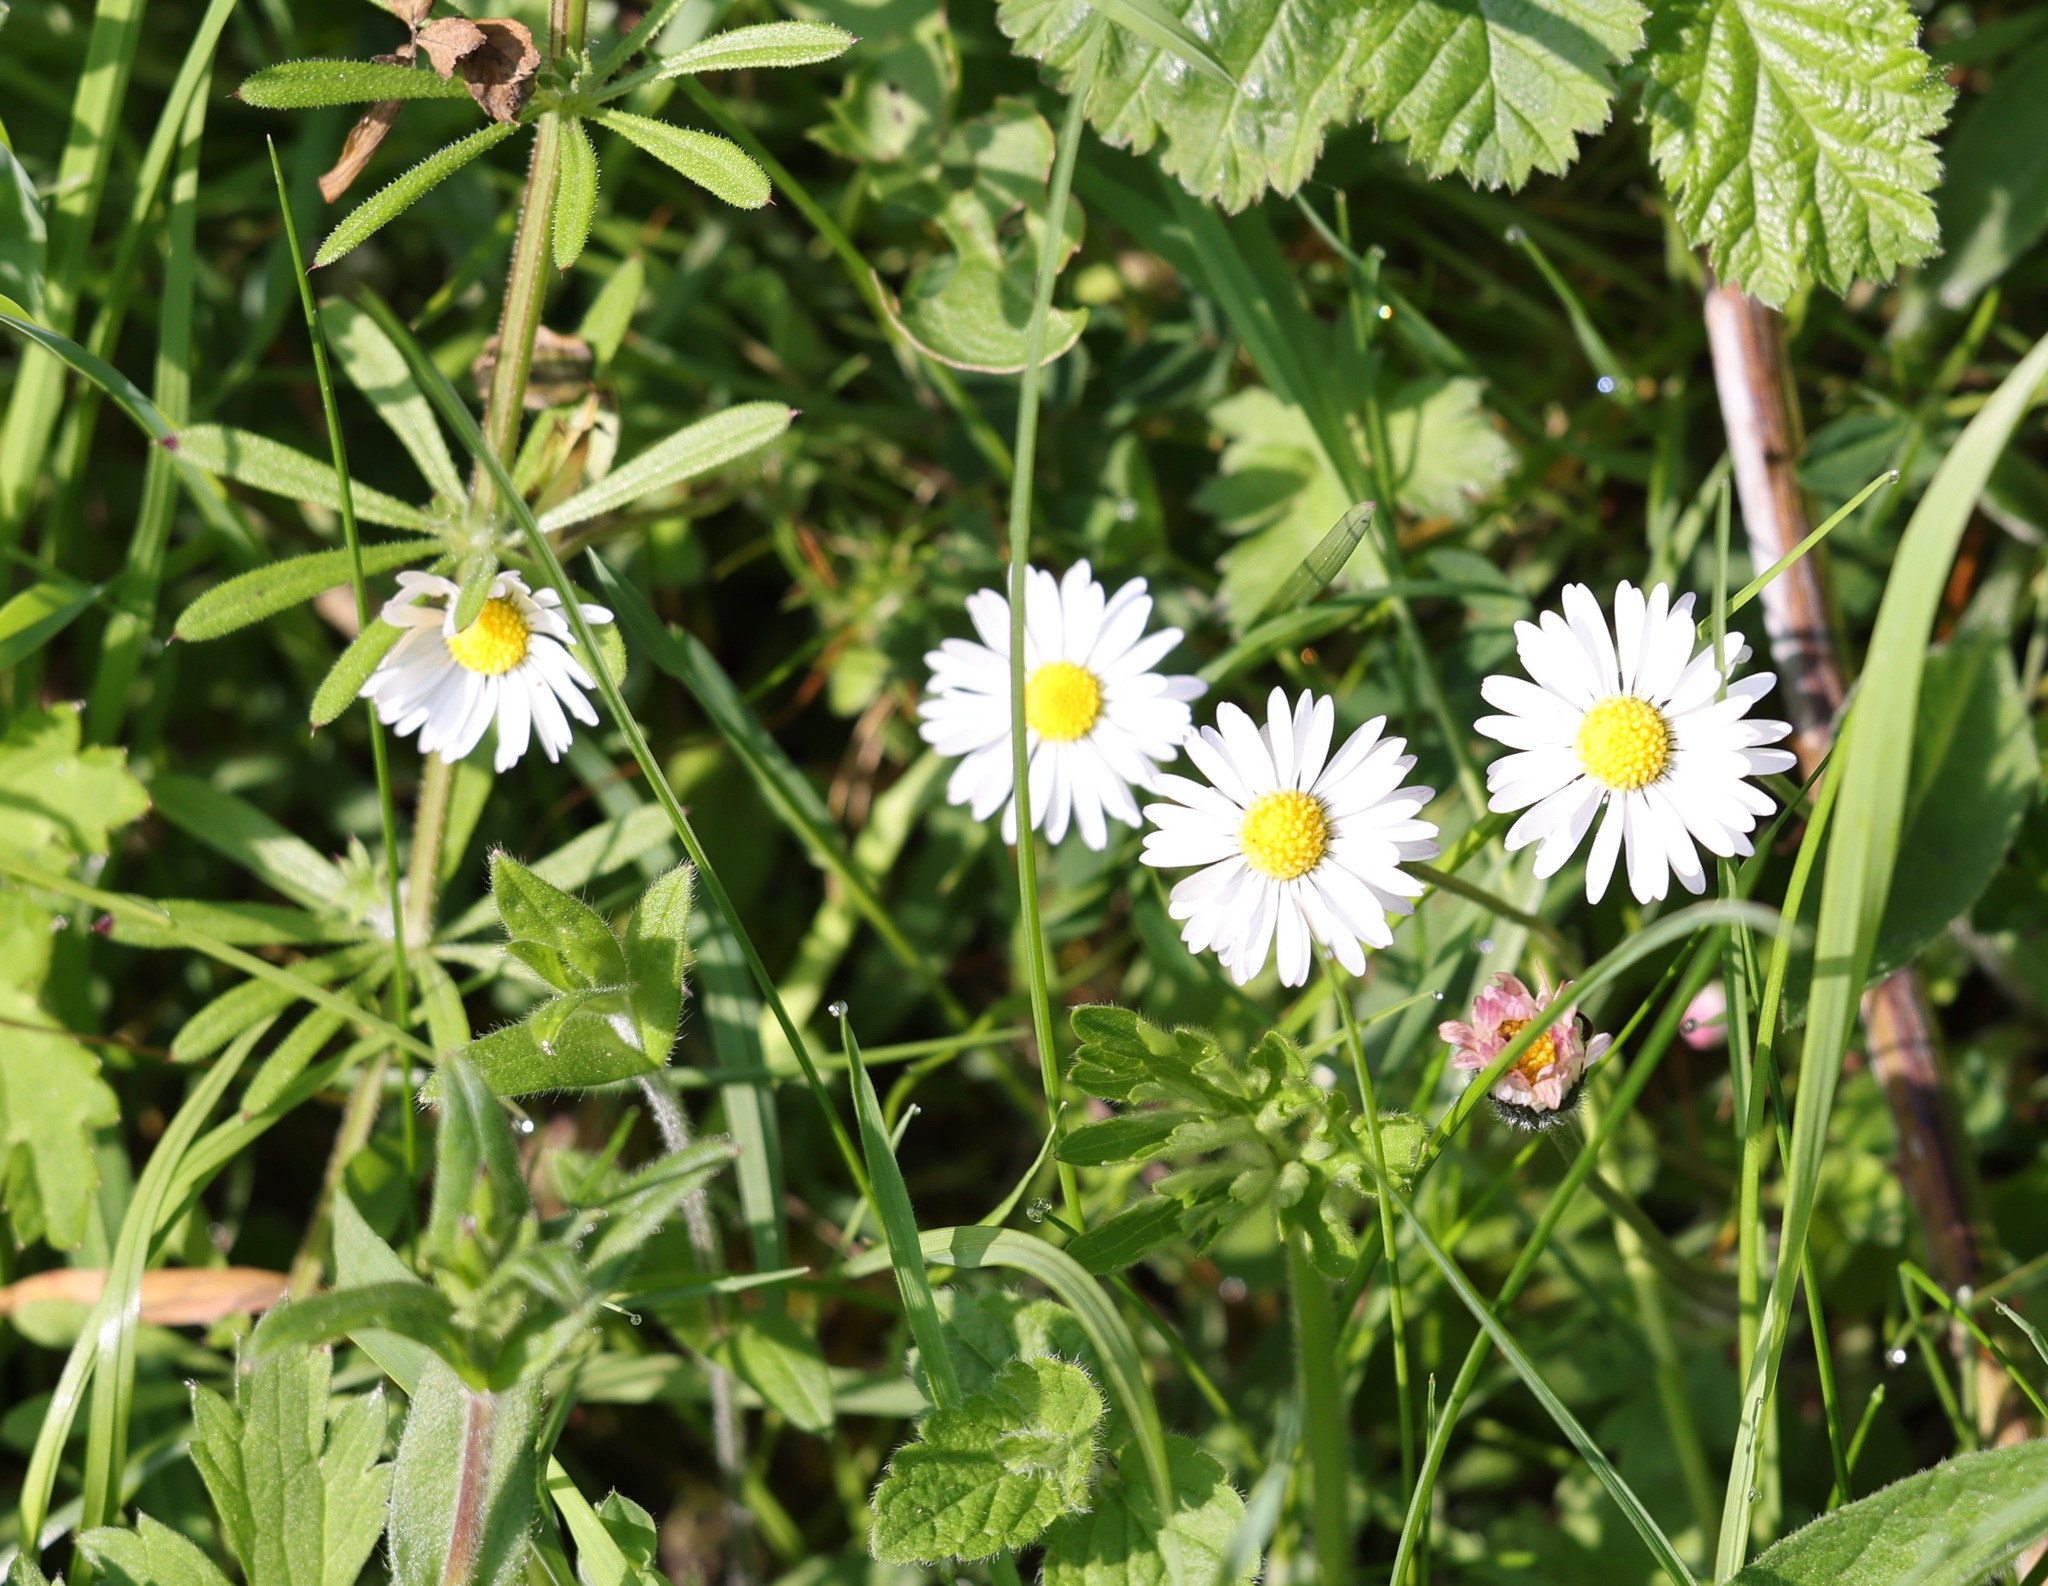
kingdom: Plantae
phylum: Tracheophyta
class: Magnoliopsida
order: Asterales
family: Asteraceae
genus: Bellis
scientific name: Bellis perennis
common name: Lawndaisy
